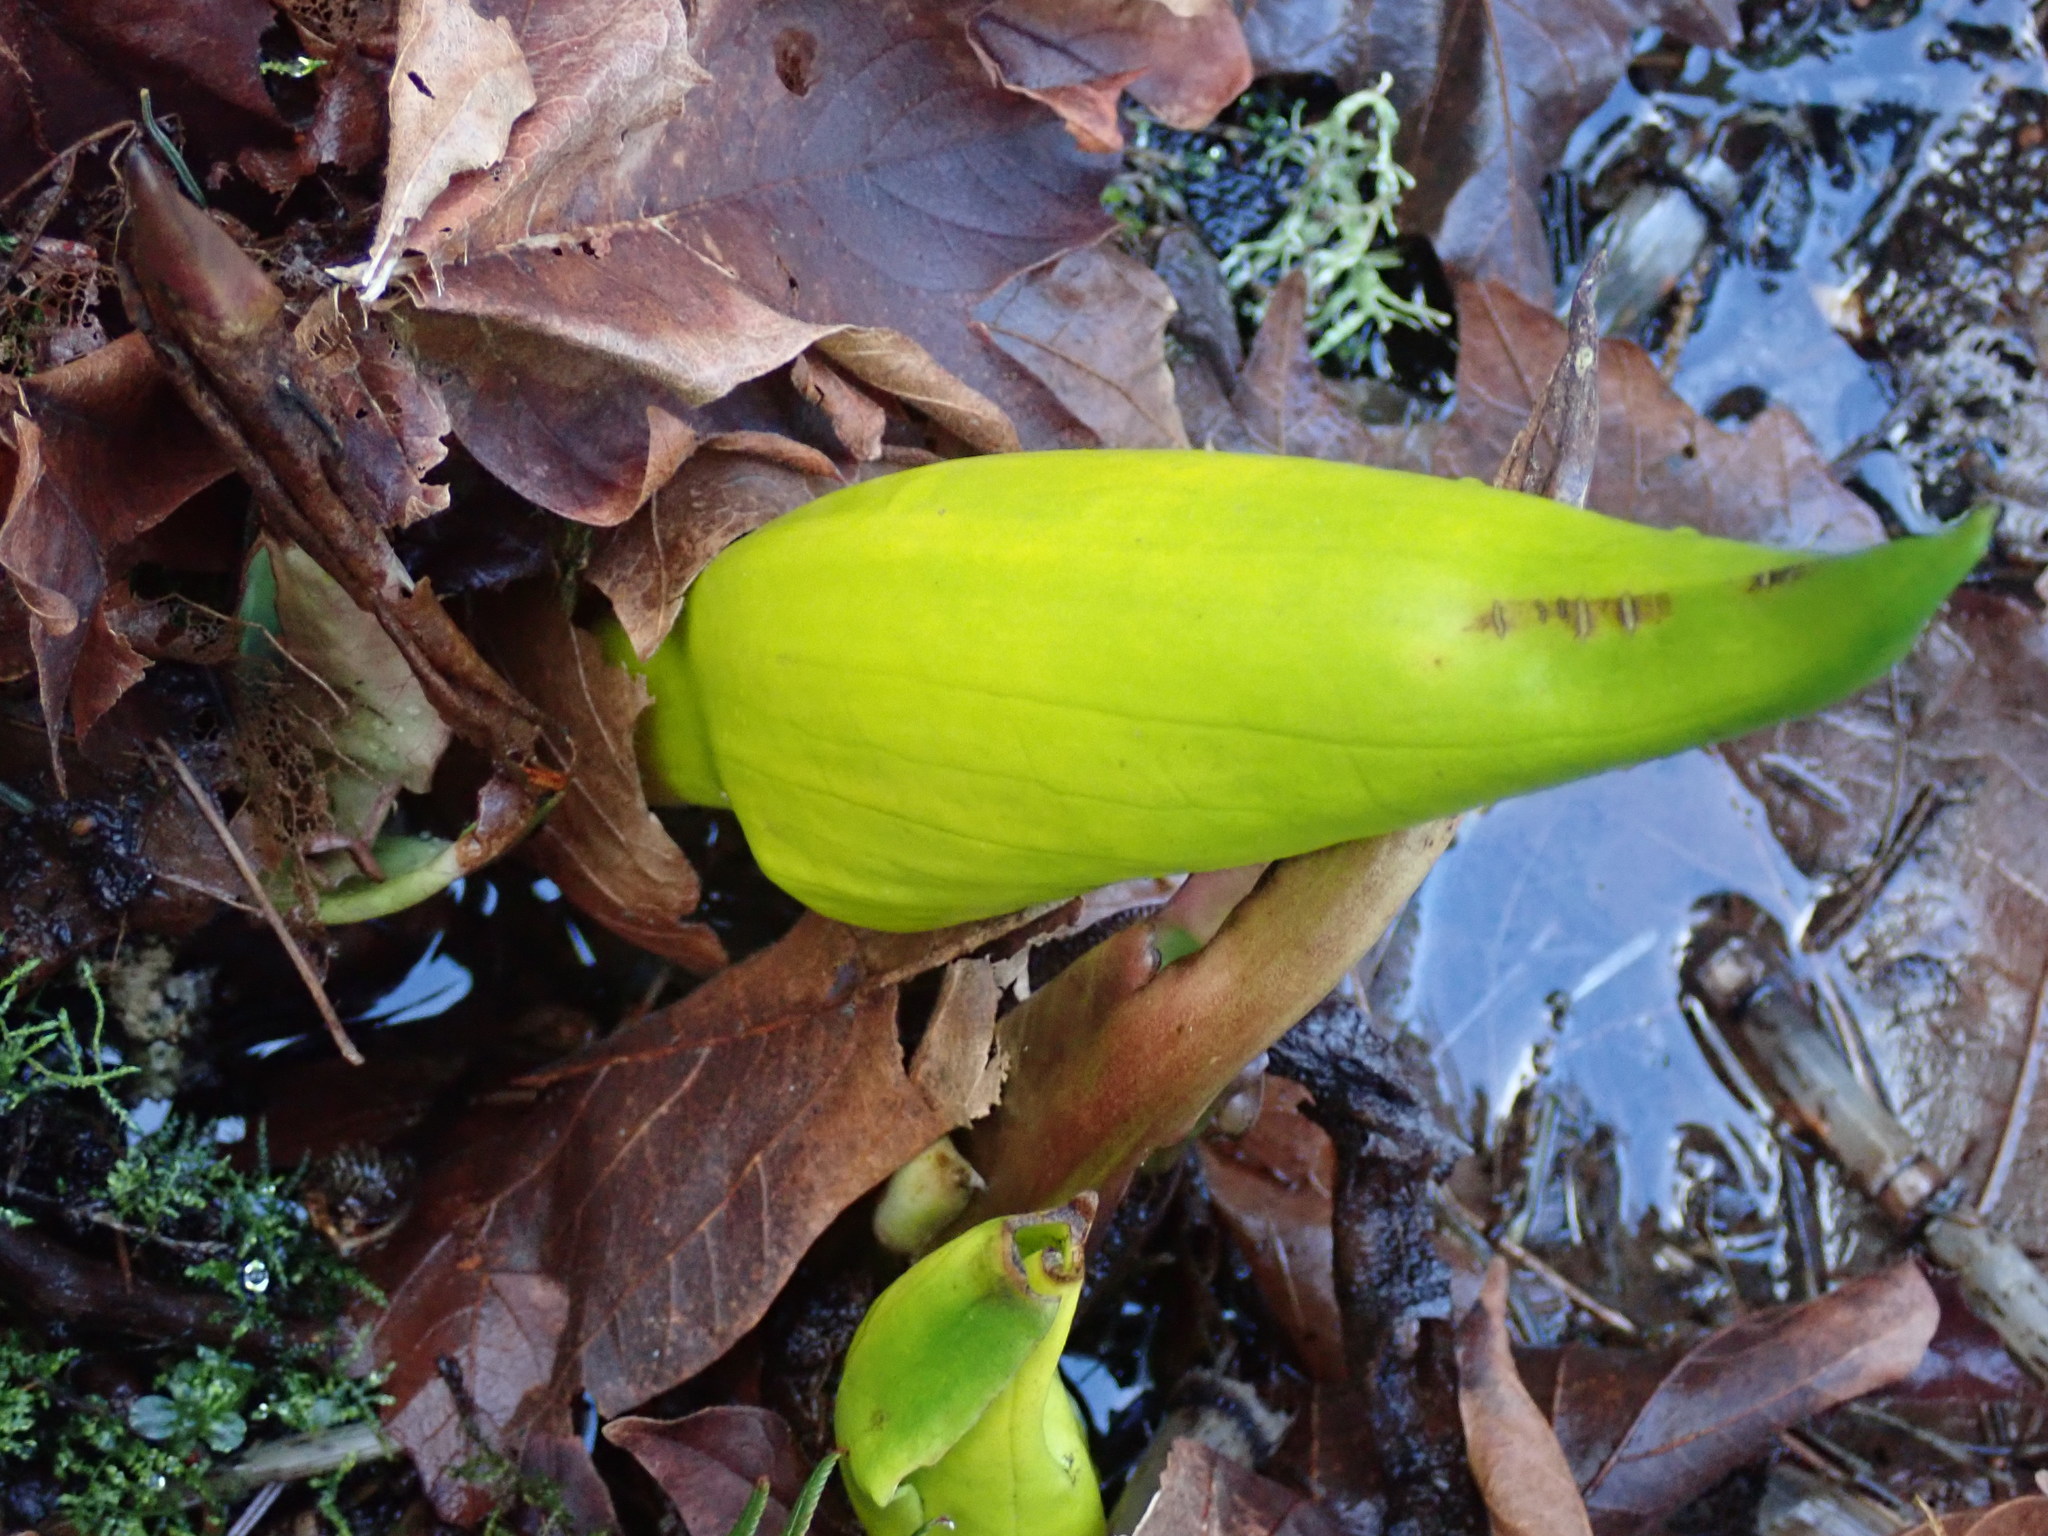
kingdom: Plantae
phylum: Tracheophyta
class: Liliopsida
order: Alismatales
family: Araceae
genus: Lysichiton
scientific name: Lysichiton americanus
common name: American skunk cabbage
